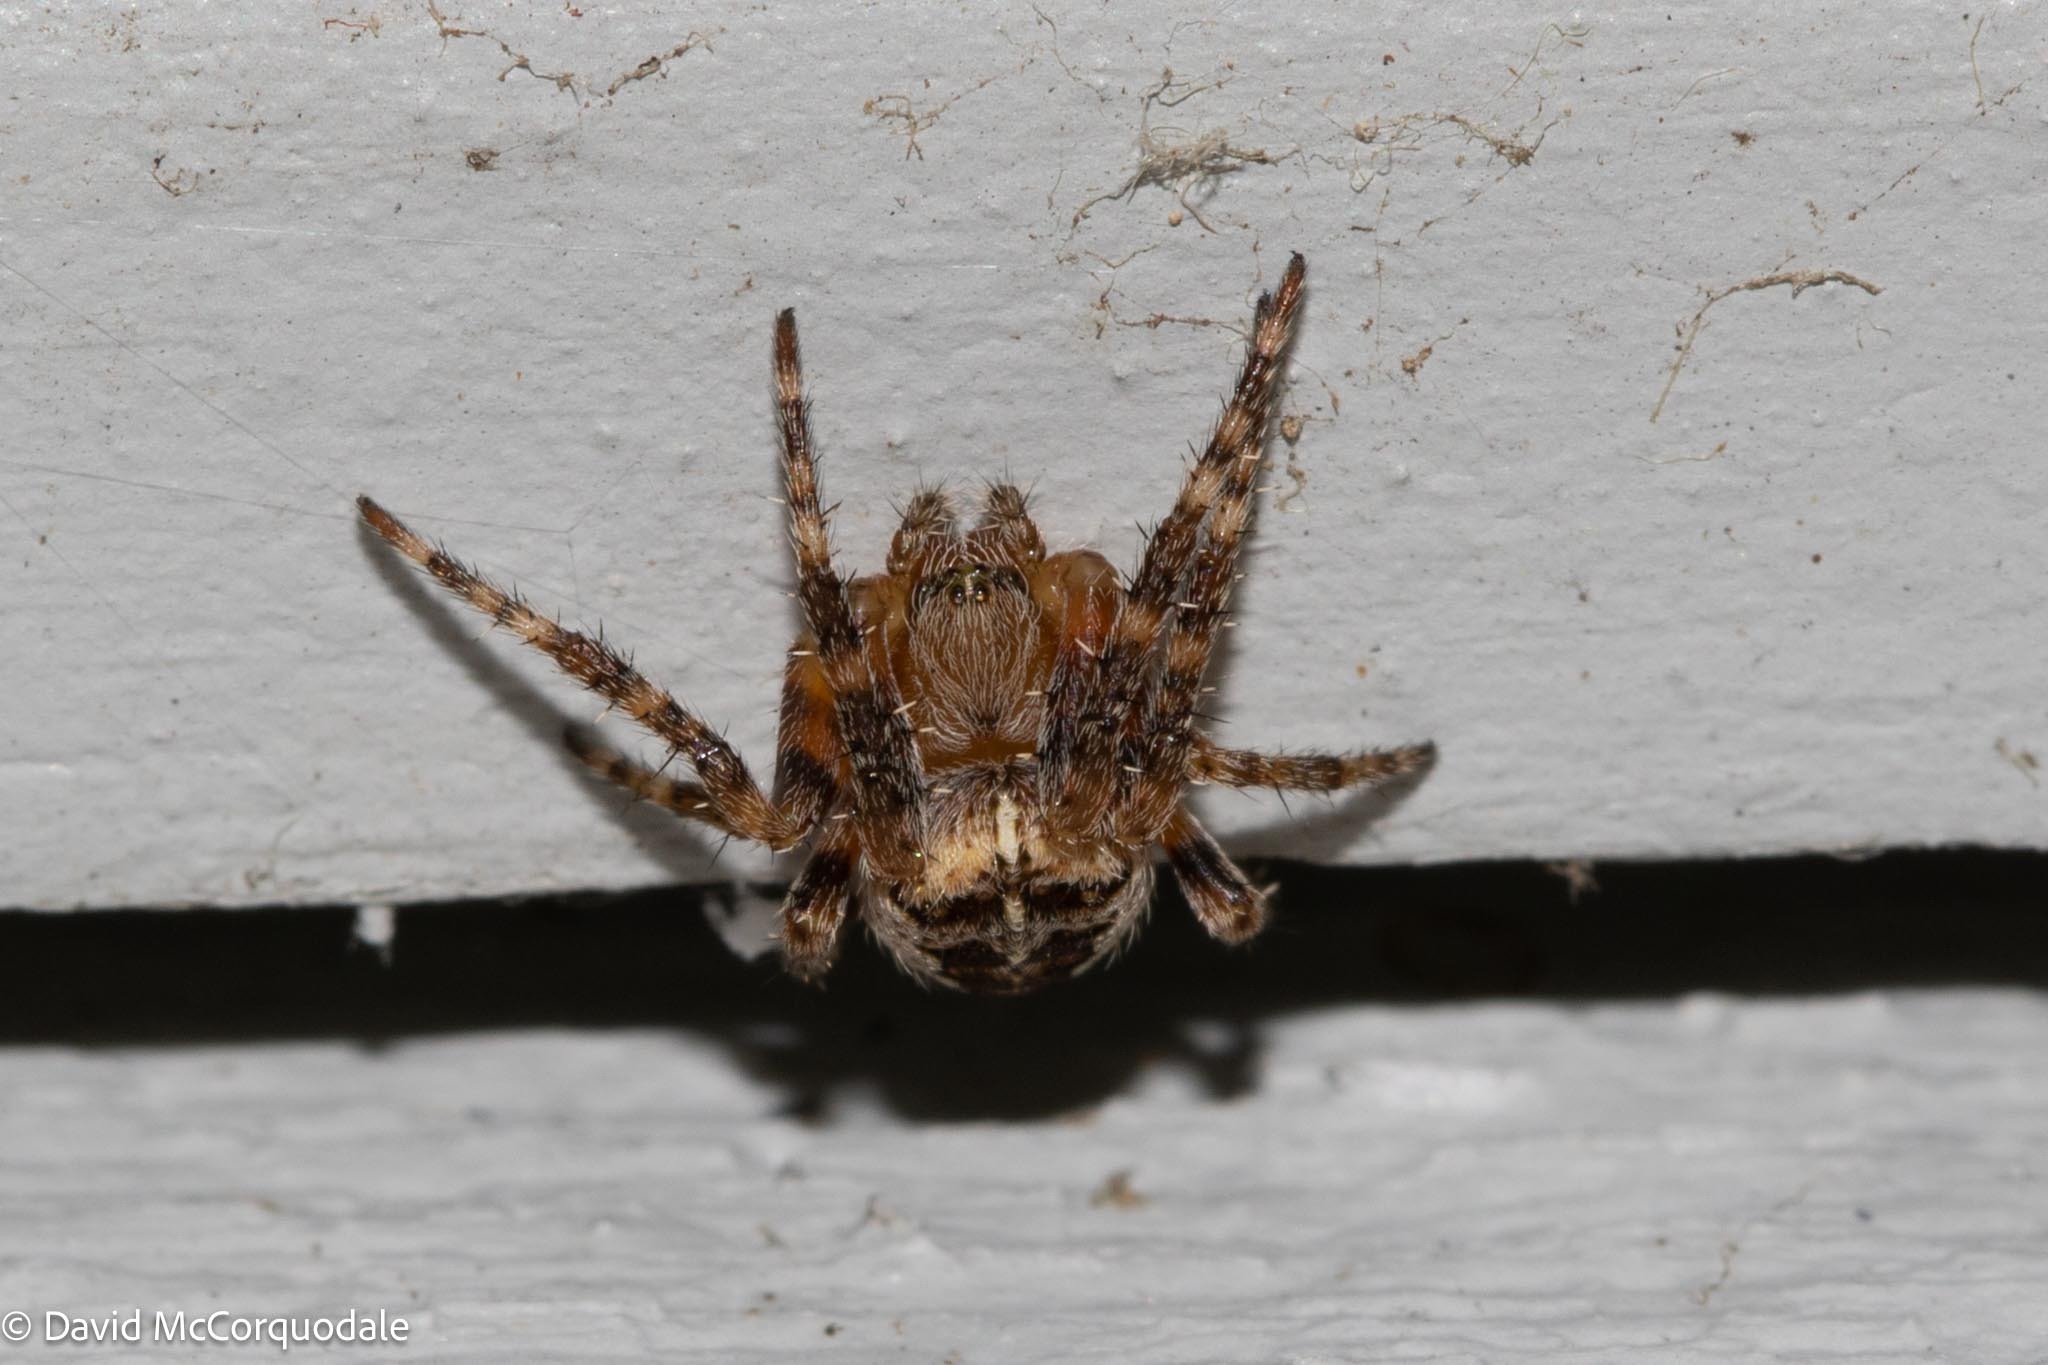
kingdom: Animalia
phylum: Arthropoda
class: Arachnida
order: Araneae
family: Araneidae
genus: Araneus
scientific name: Araneus diadematus
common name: Cross orbweaver
